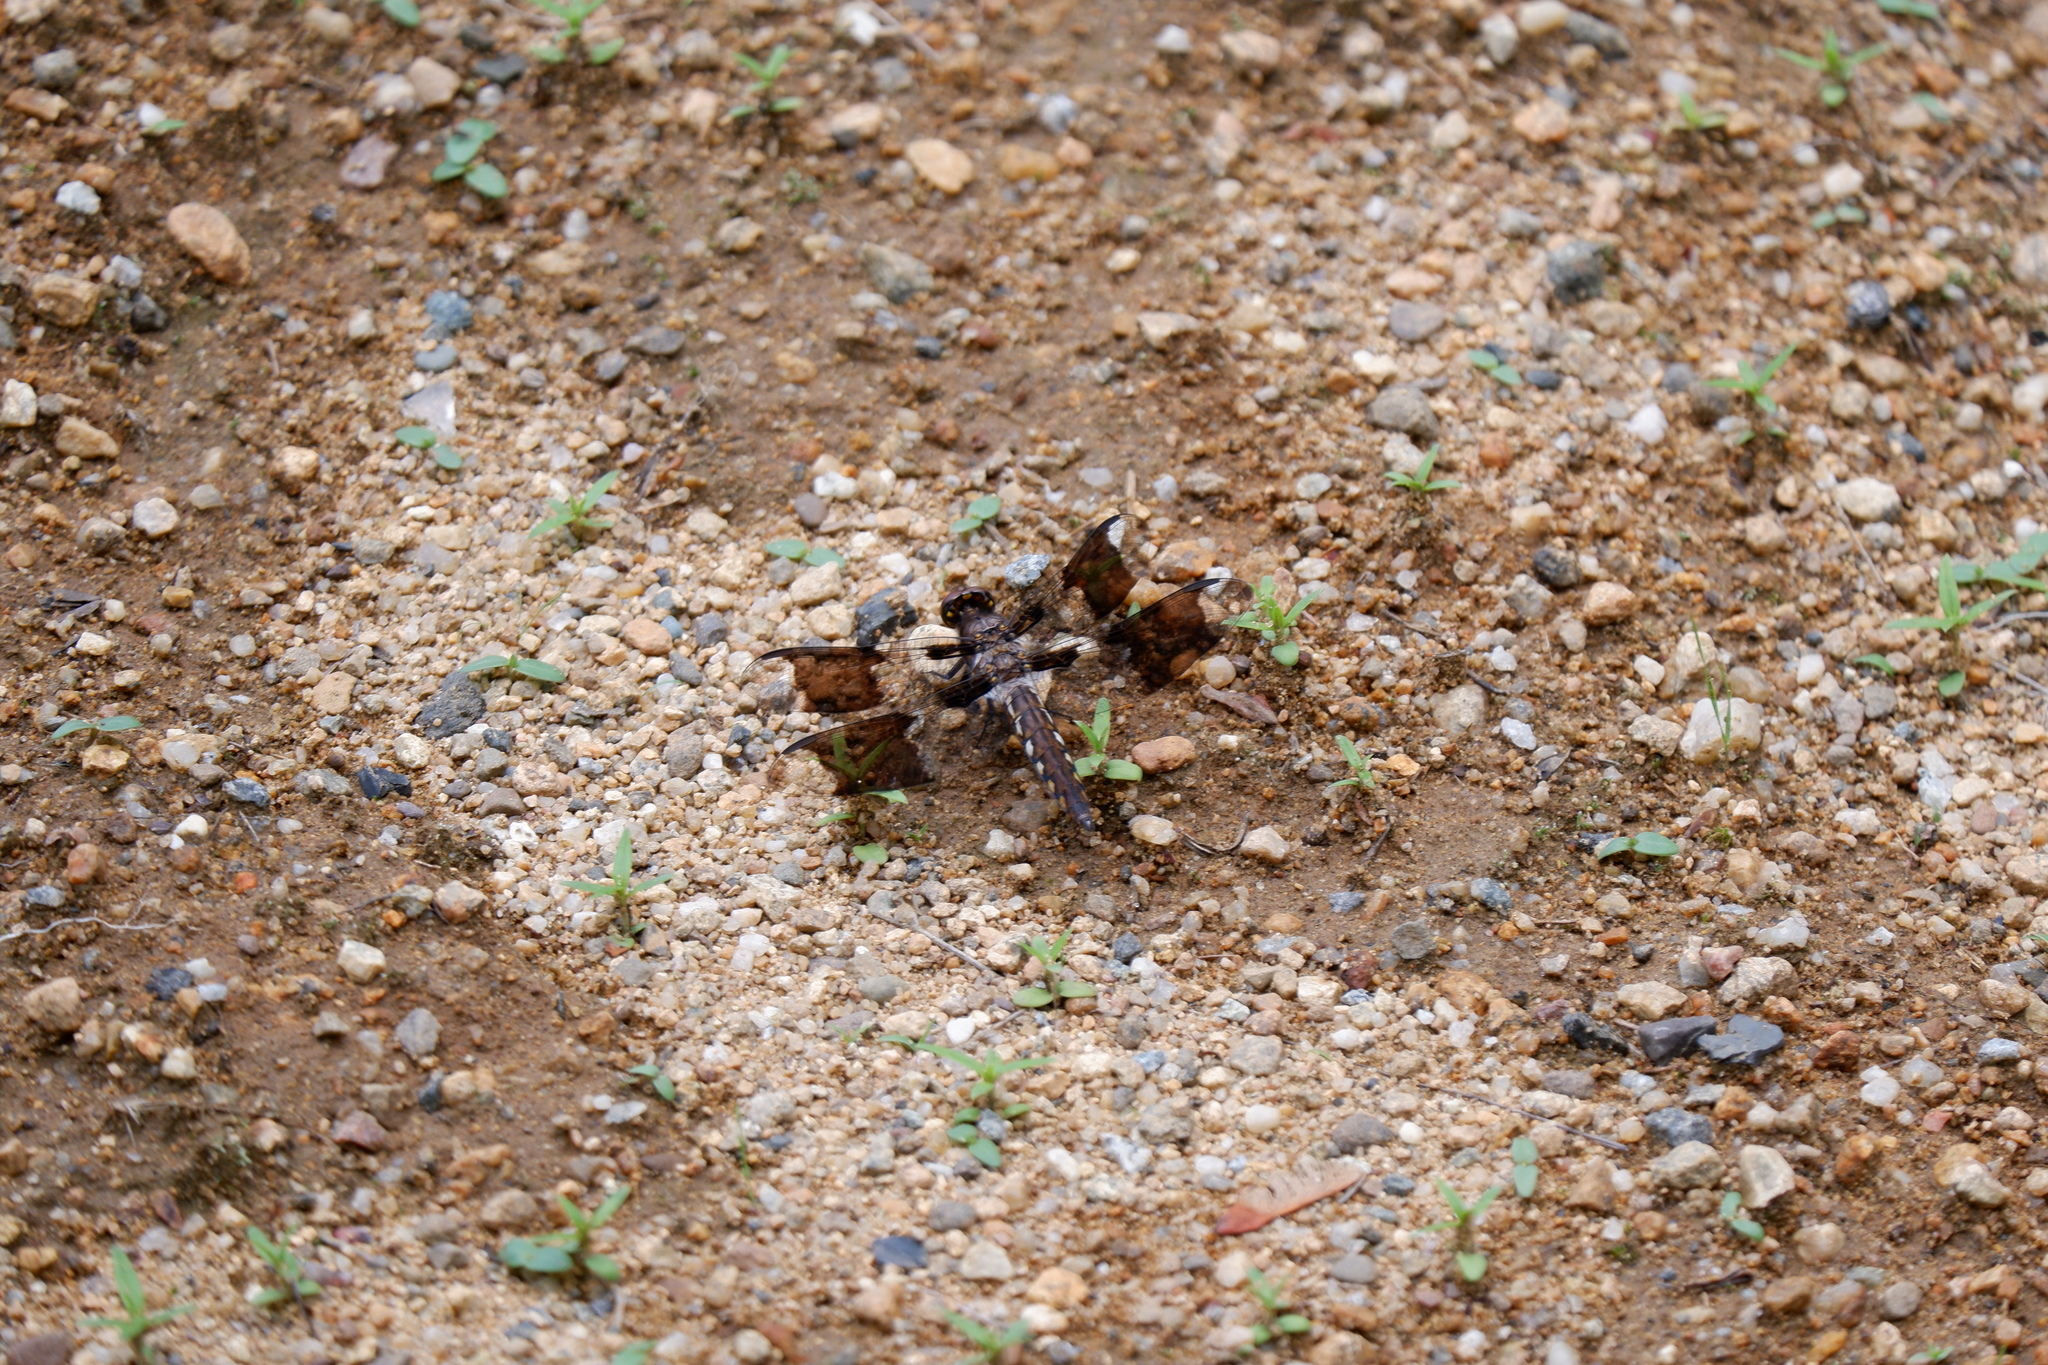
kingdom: Animalia
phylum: Arthropoda
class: Insecta
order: Odonata
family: Libellulidae
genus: Plathemis
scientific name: Plathemis lydia
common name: Common whitetail
